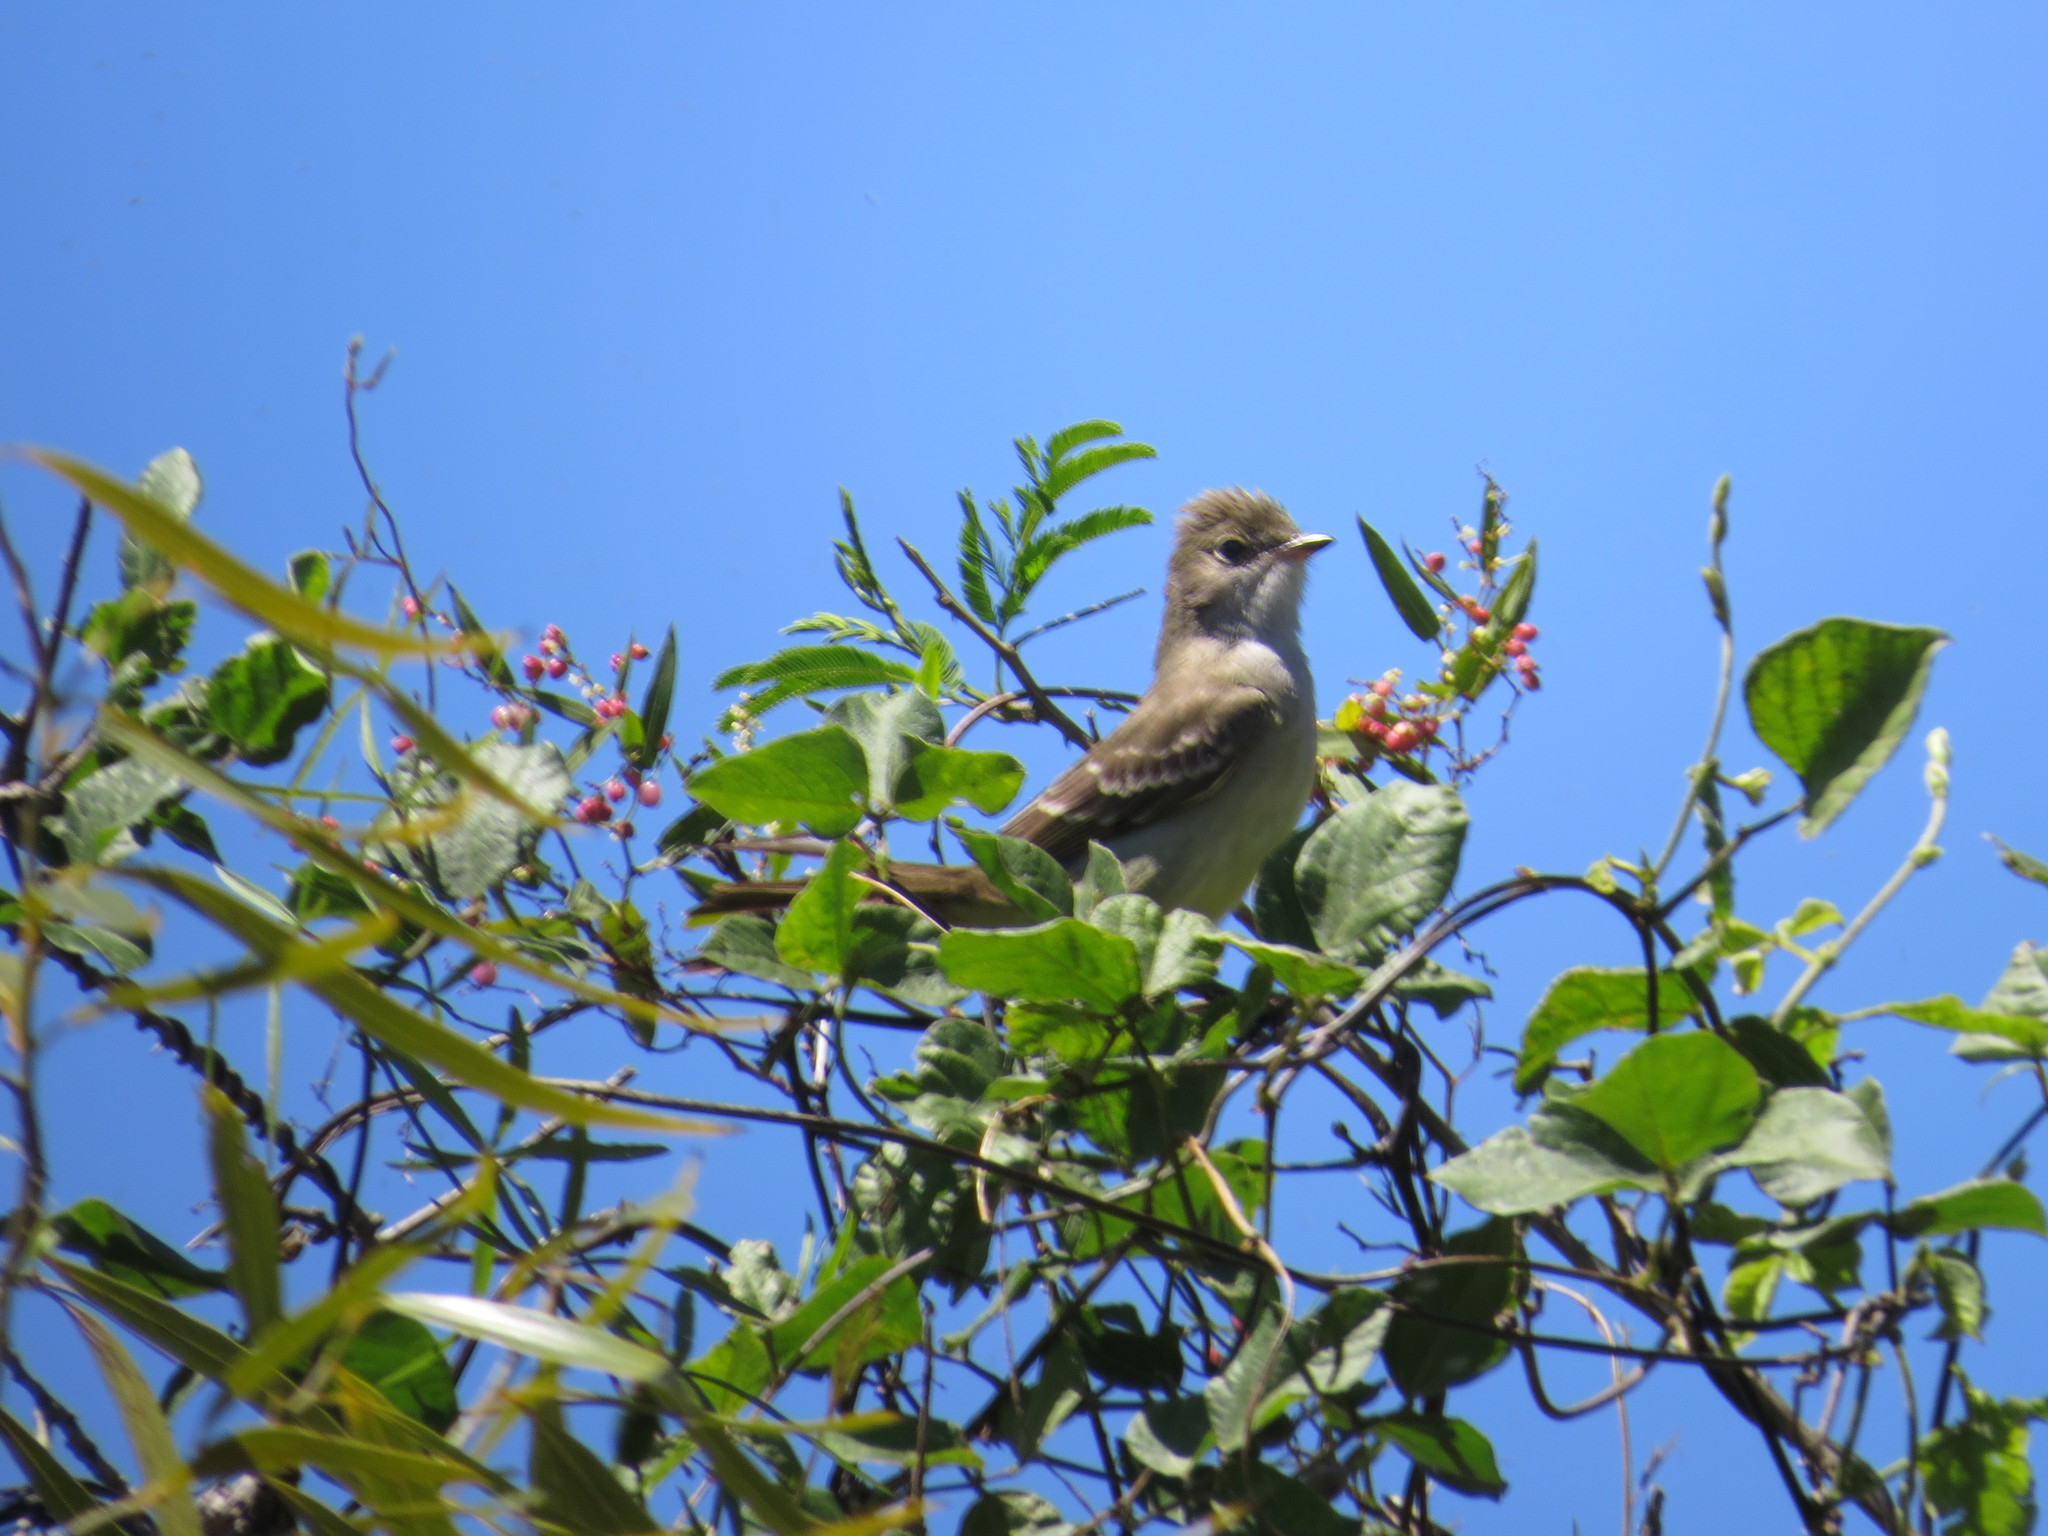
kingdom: Animalia
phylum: Chordata
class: Aves
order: Passeriformes
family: Tyrannidae
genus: Elaenia
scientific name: Elaenia spectabilis
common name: Large elaenia
